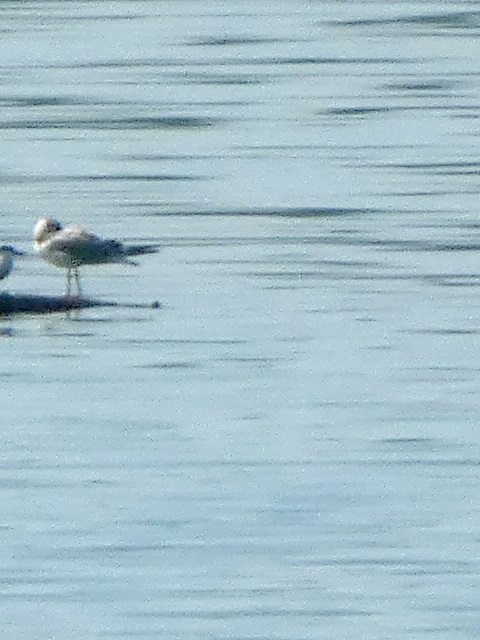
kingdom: Animalia
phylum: Chordata
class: Aves
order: Charadriiformes
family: Laridae
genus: Chroicocephalus
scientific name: Chroicocephalus ridibundus
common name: Black-headed gull
